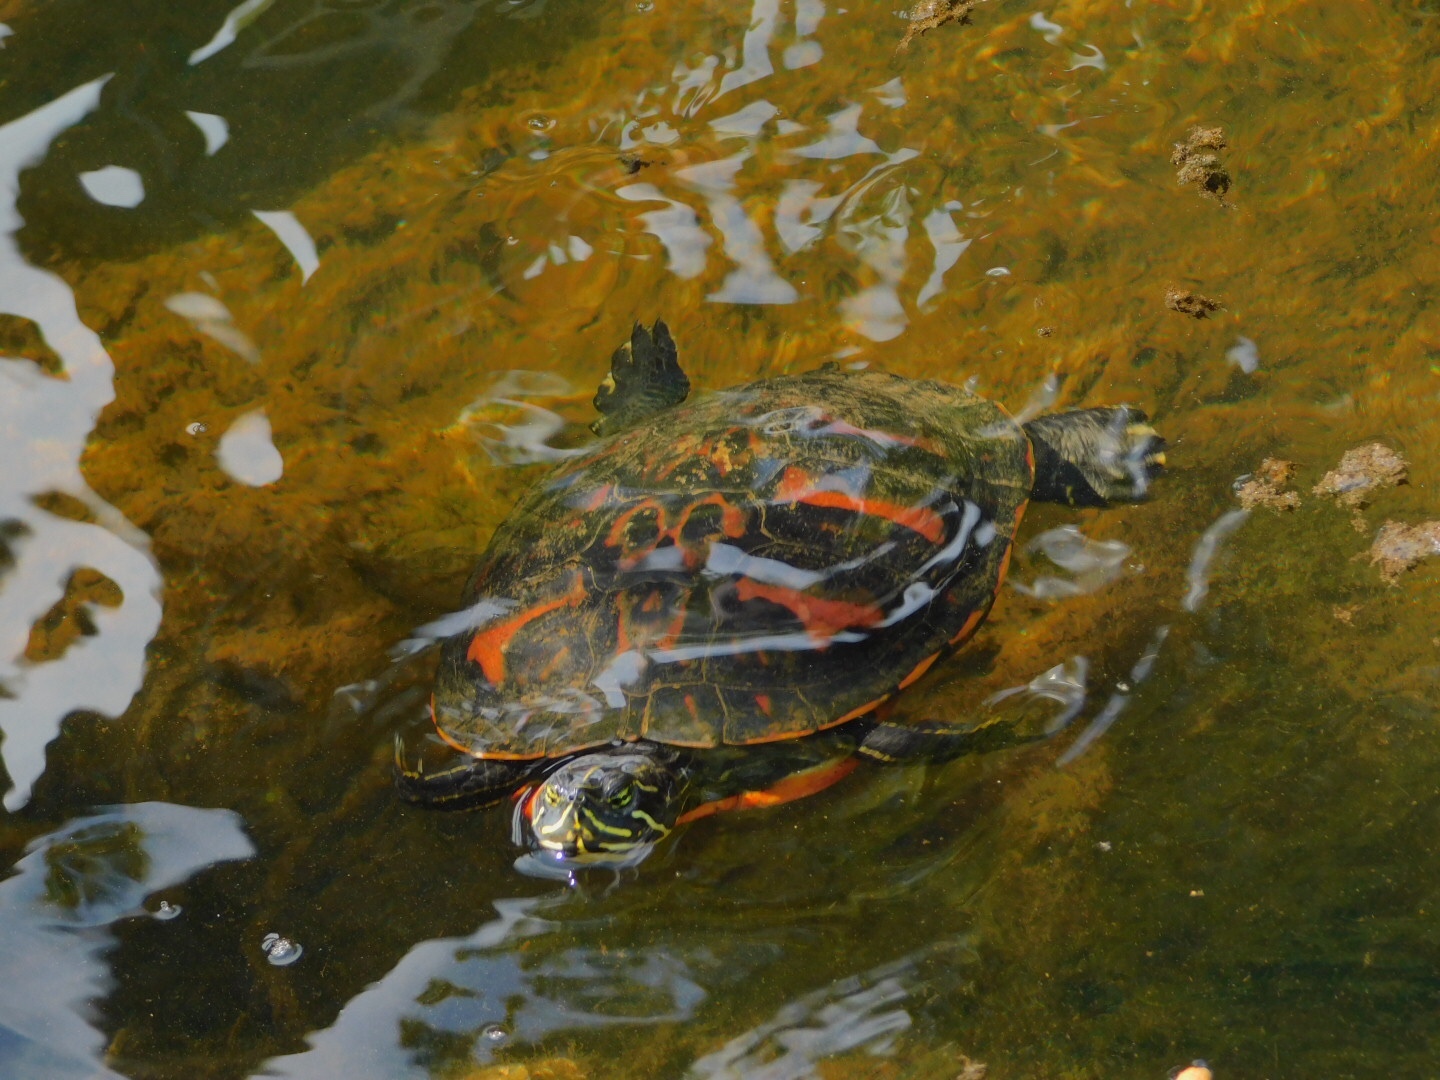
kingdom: Animalia
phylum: Chordata
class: Testudines
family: Emydidae
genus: Pseudemys
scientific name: Pseudemys nelsoni
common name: Florida red-bellied turtle
